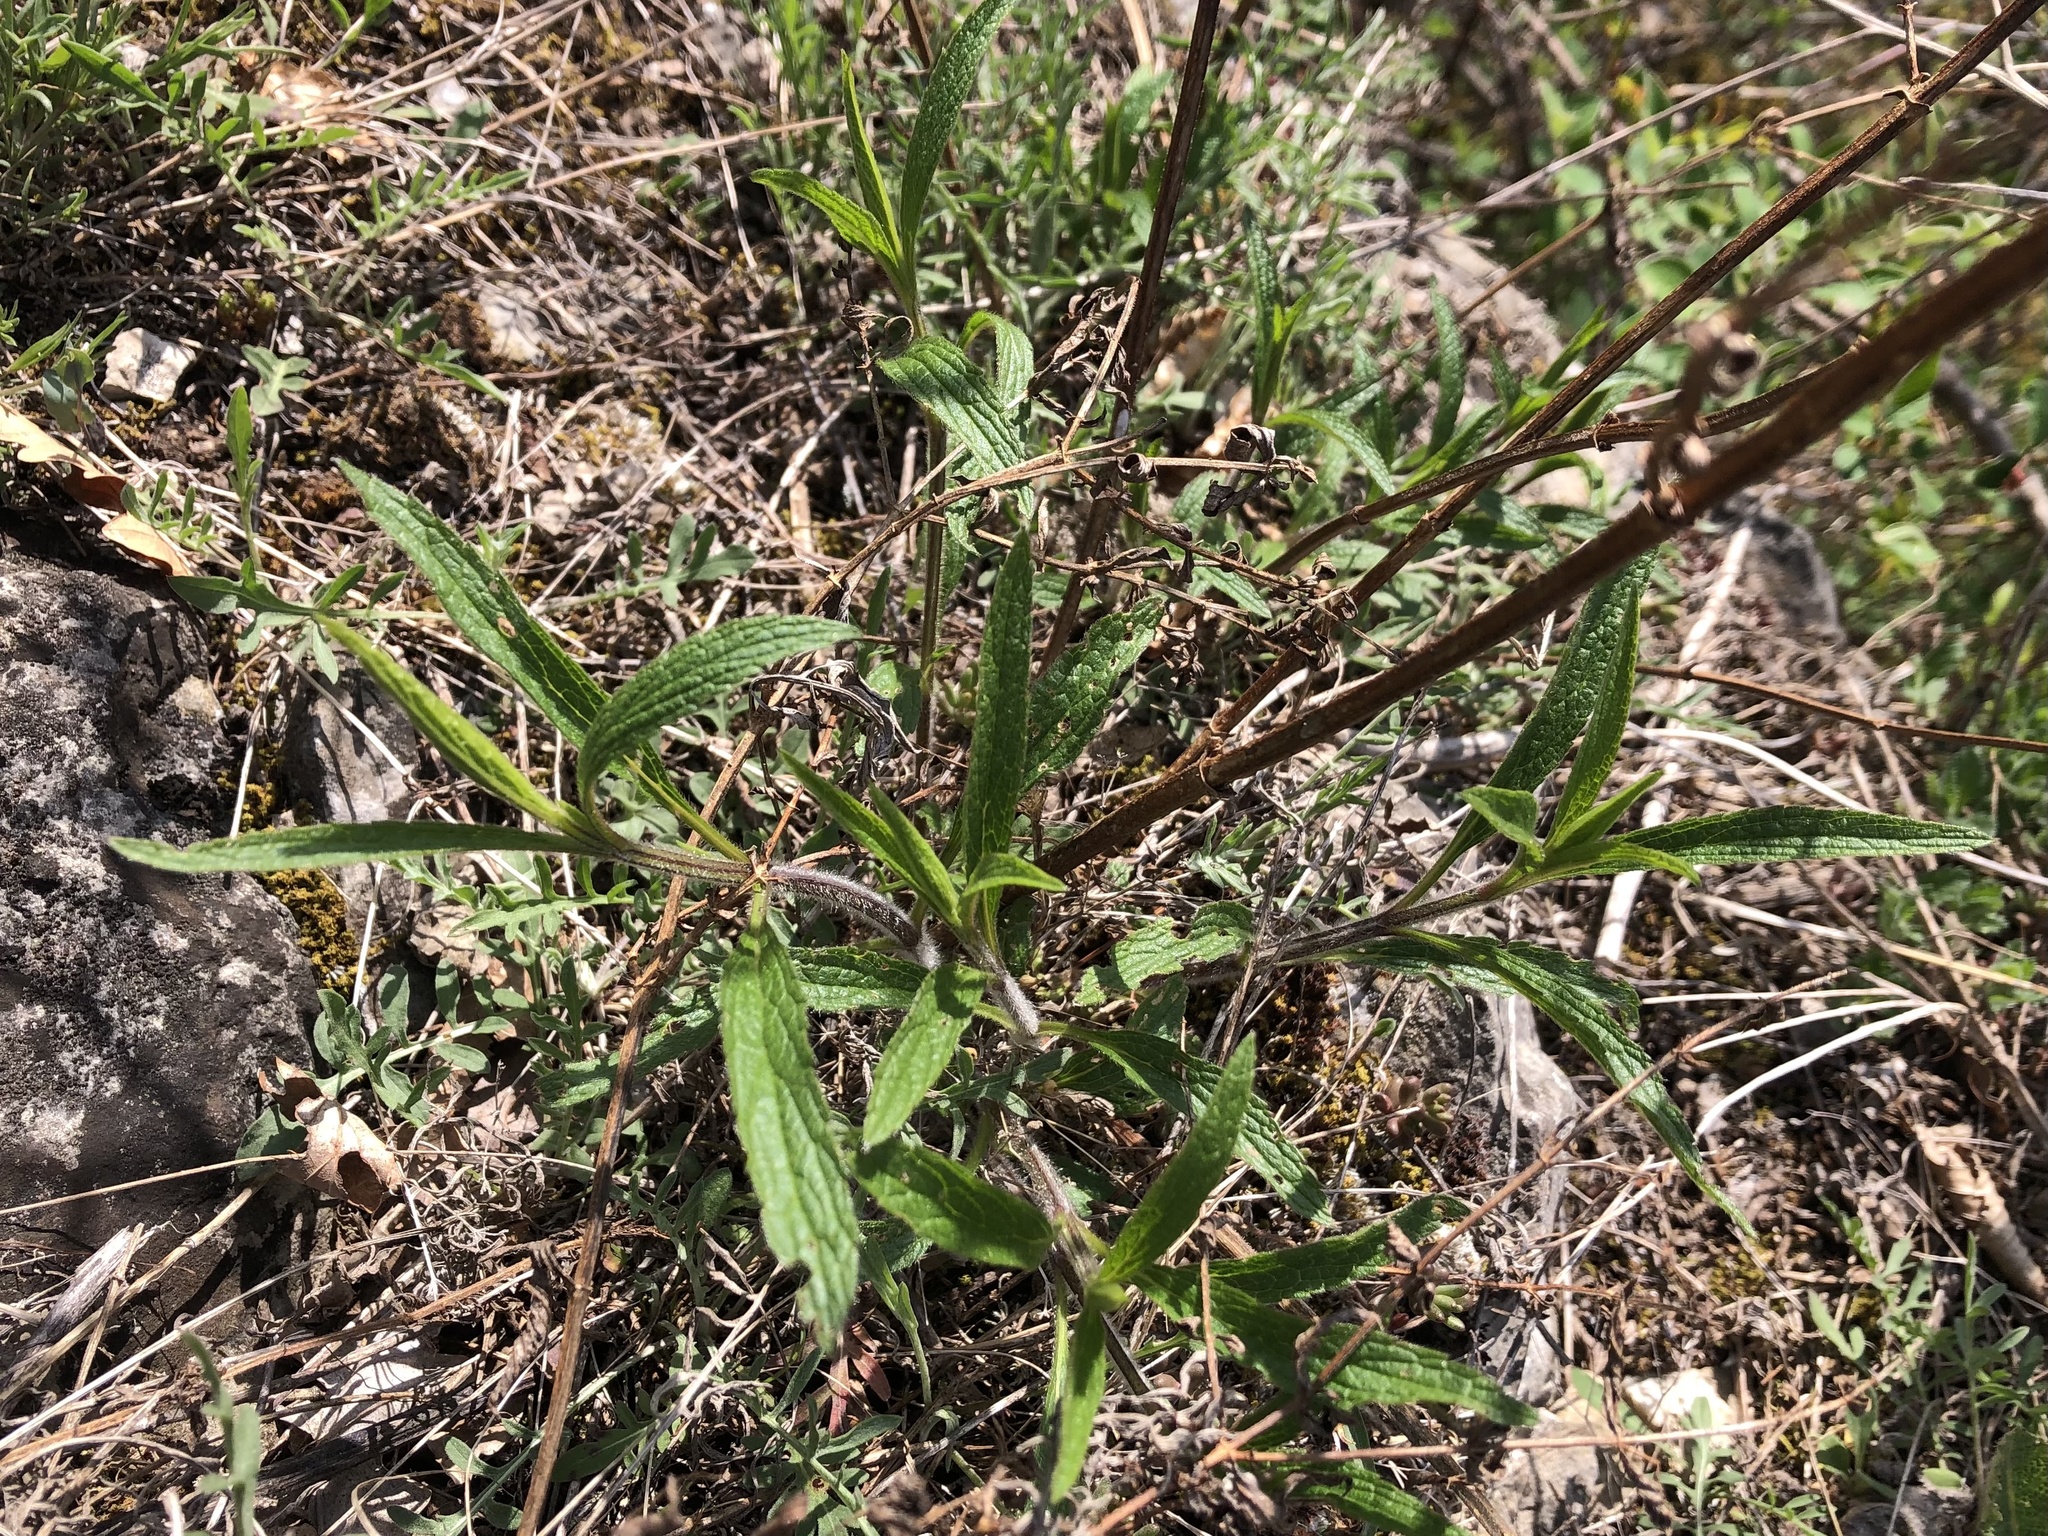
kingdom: Plantae
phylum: Tracheophyta
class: Magnoliopsida
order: Lamiales
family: Lamiaceae
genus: Stachys
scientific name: Stachys recta
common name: Perennial yellow-woundwort
